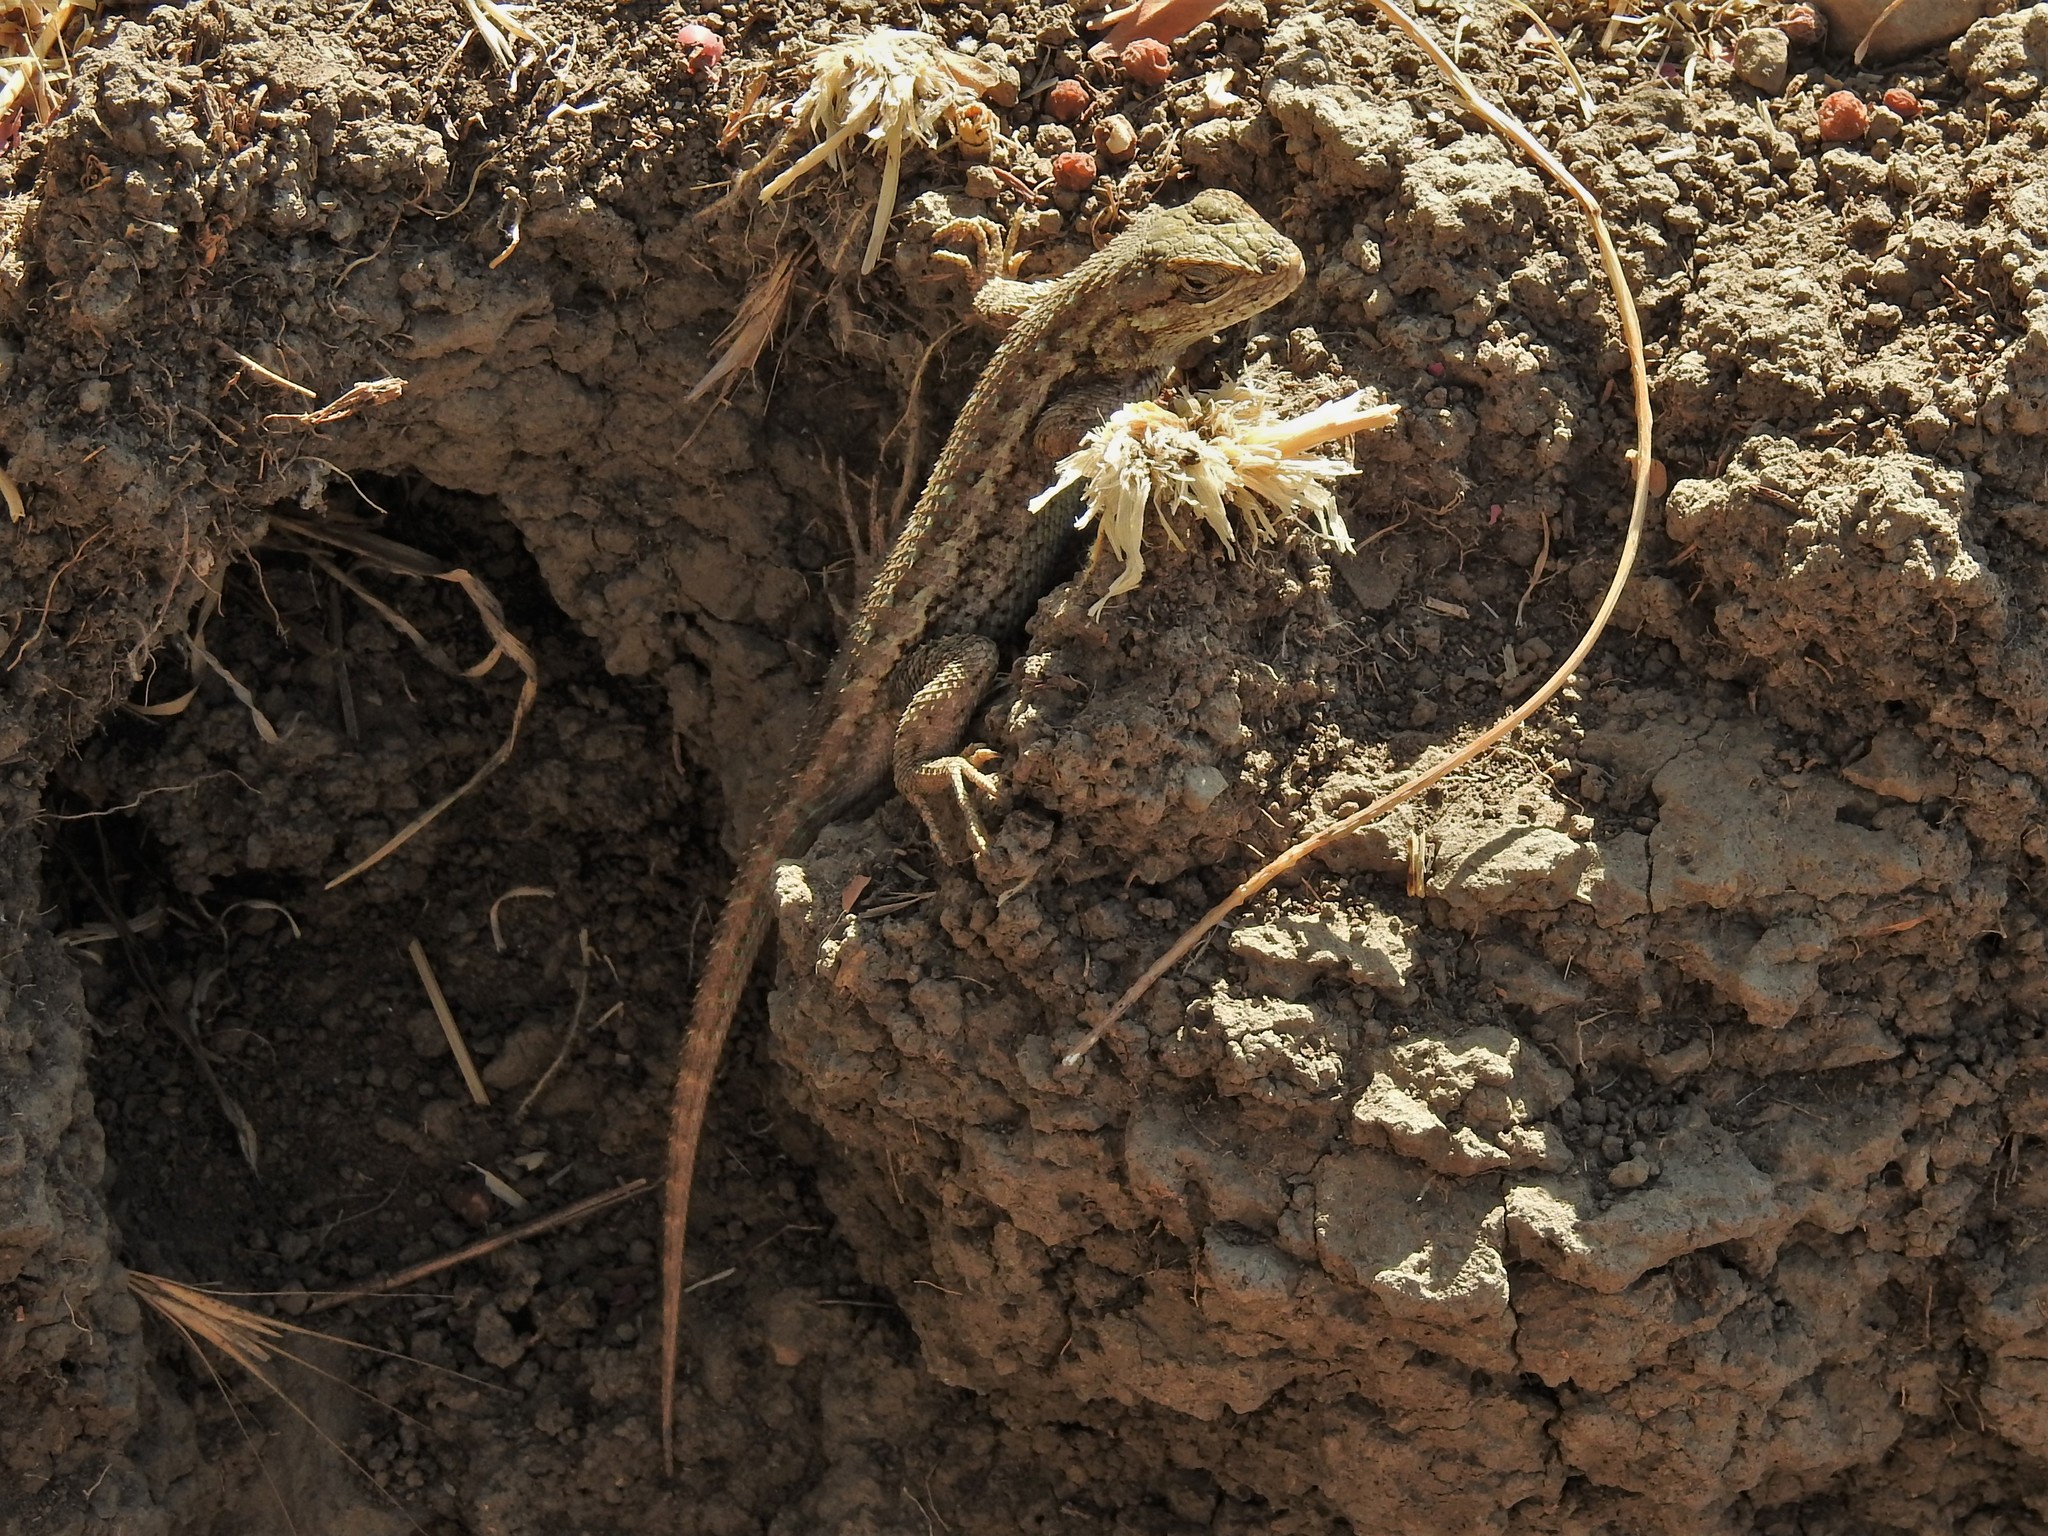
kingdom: Animalia
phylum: Chordata
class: Squamata
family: Phrynosomatidae
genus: Sceloporus
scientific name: Sceloporus occidentalis
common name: Western fence lizard
